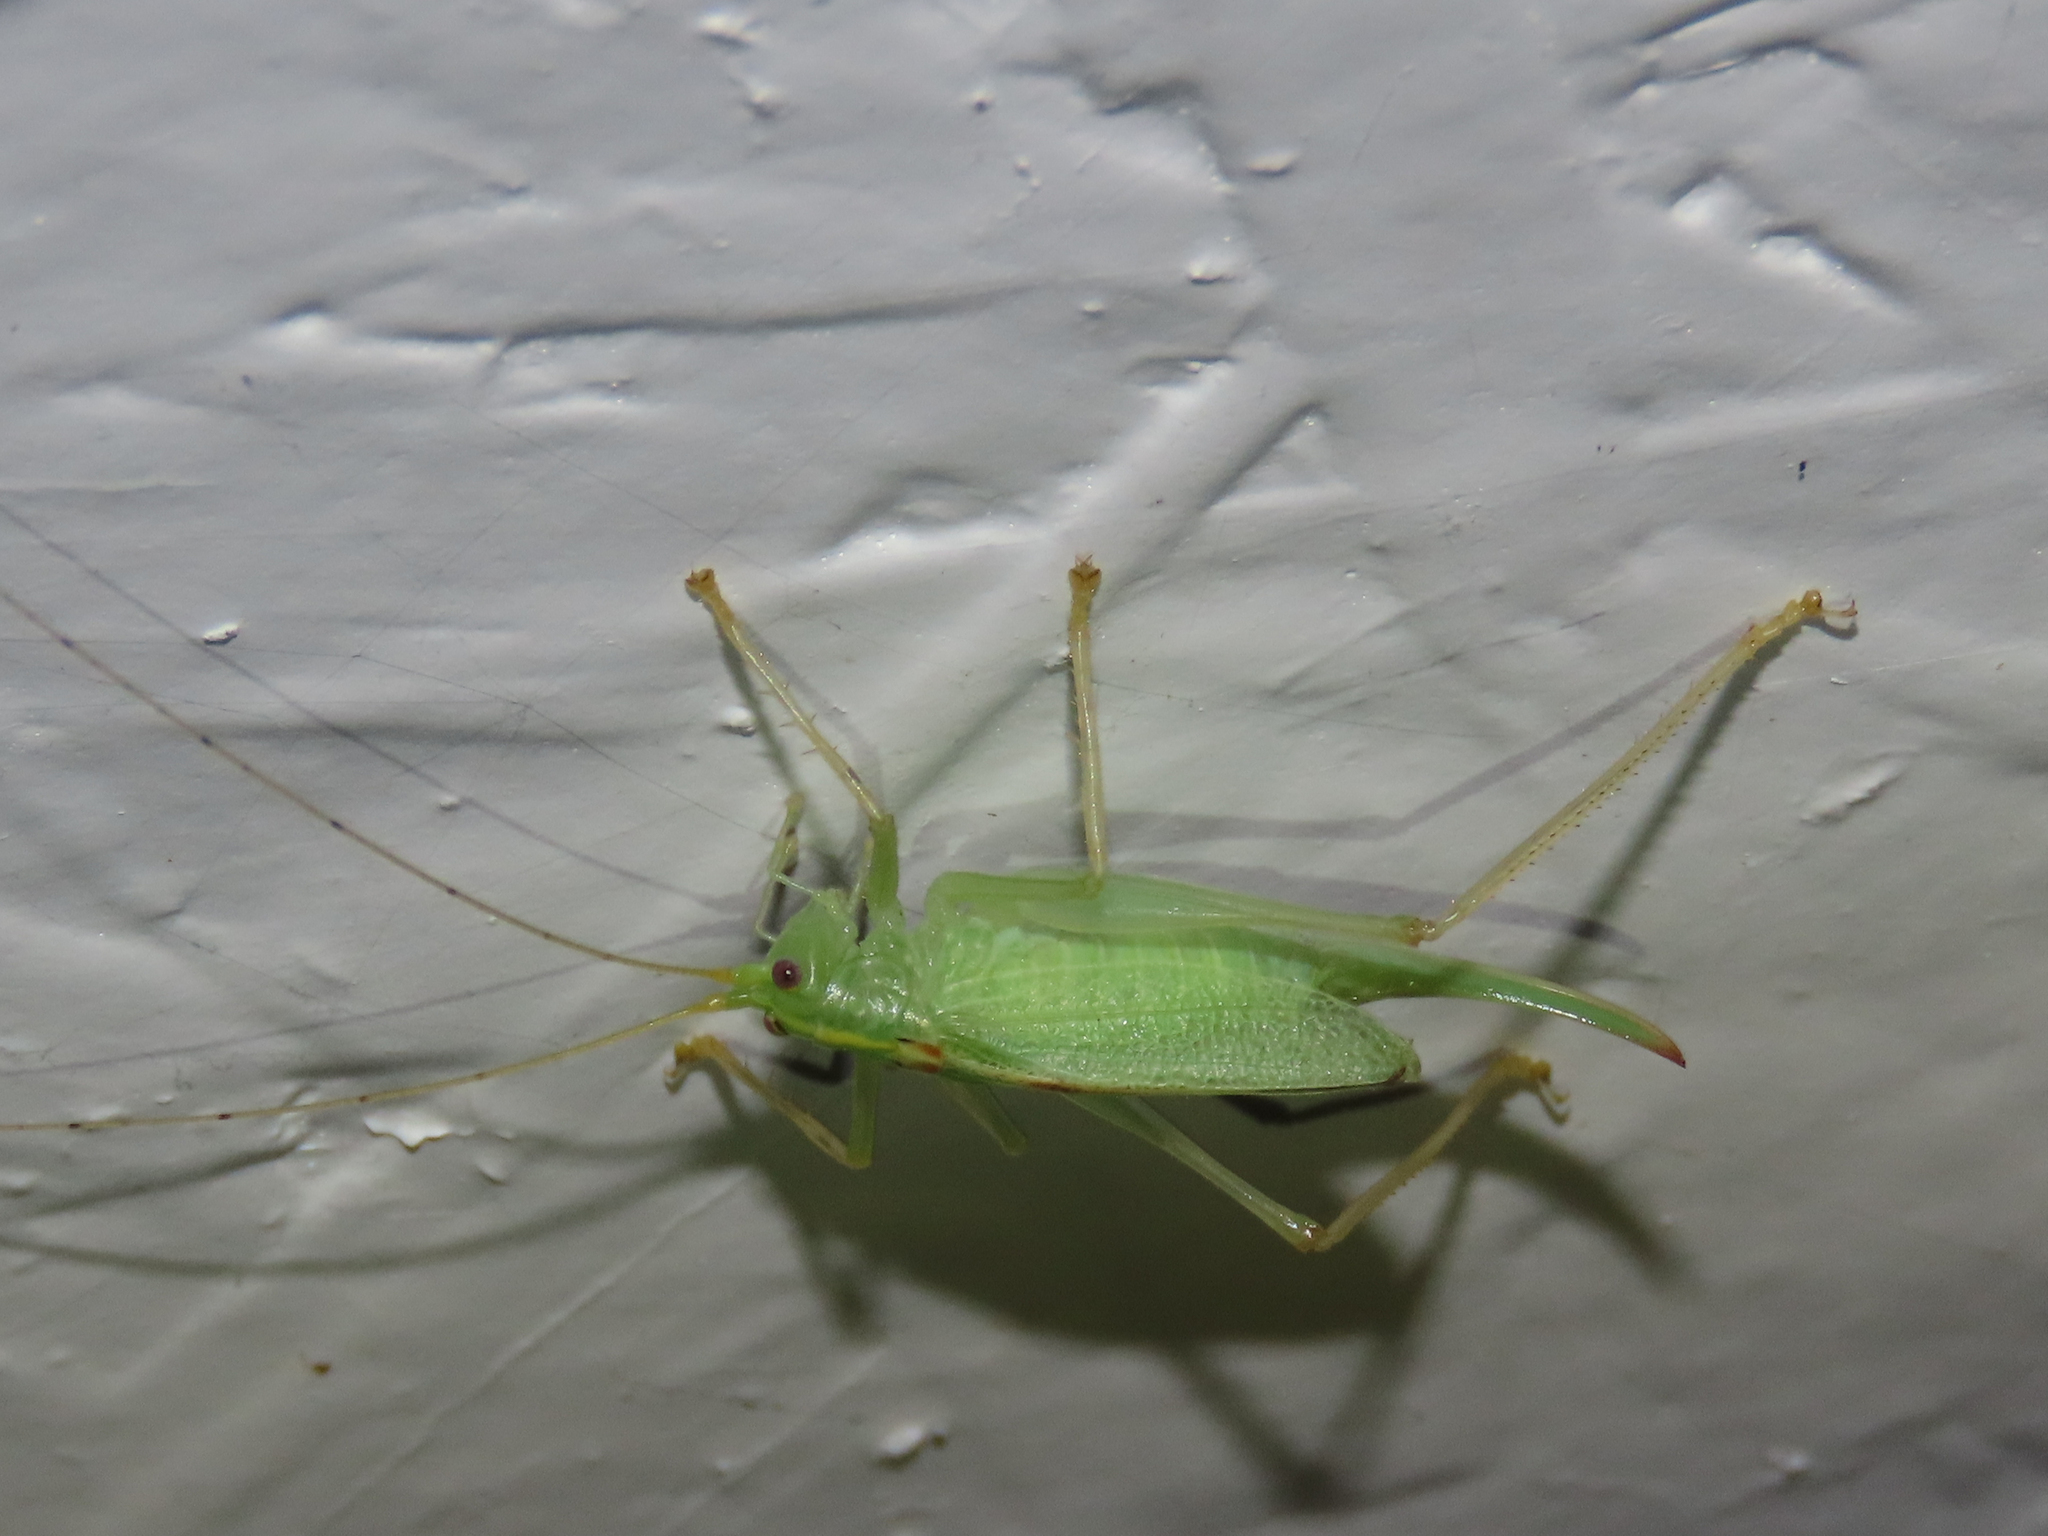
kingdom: Animalia
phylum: Arthropoda
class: Insecta
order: Orthoptera
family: Tettigoniidae
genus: Meconema
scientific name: Meconema thalassinum
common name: Oak bush-cricket
